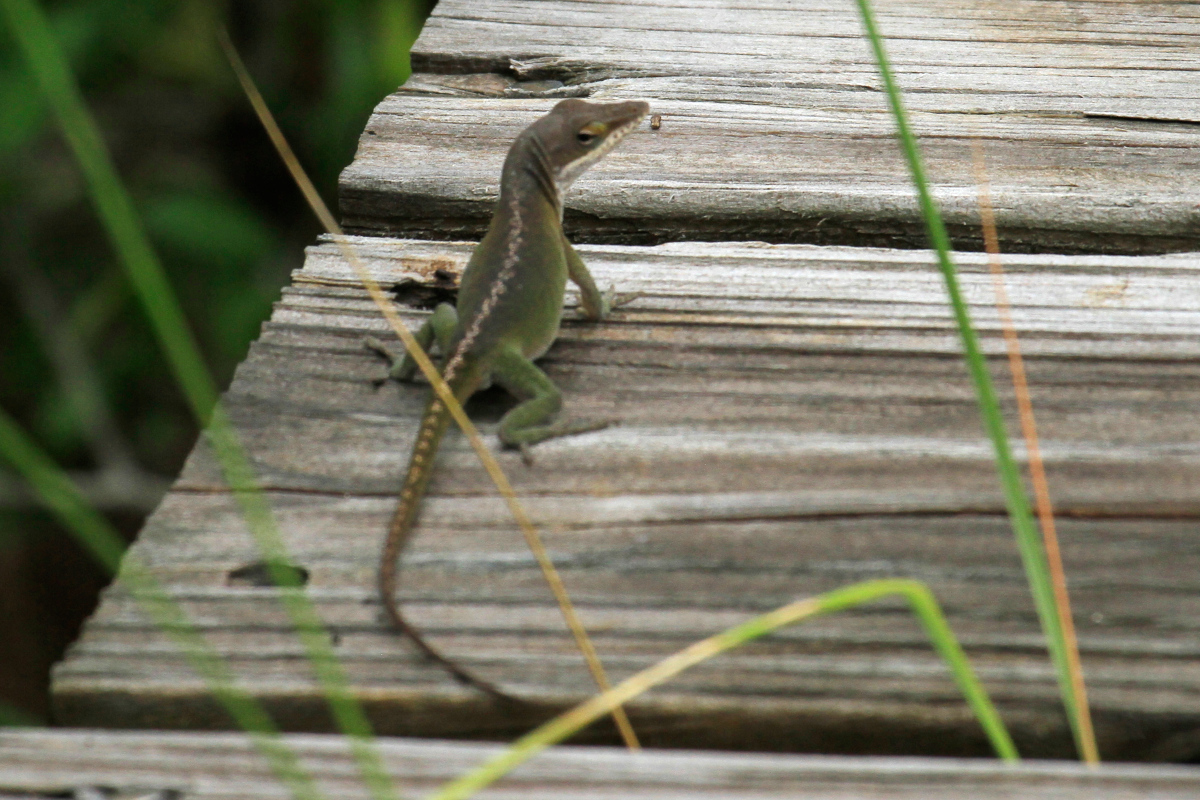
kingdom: Animalia
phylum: Chordata
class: Squamata
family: Dactyloidae
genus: Anolis
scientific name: Anolis carolinensis
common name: Green anole
